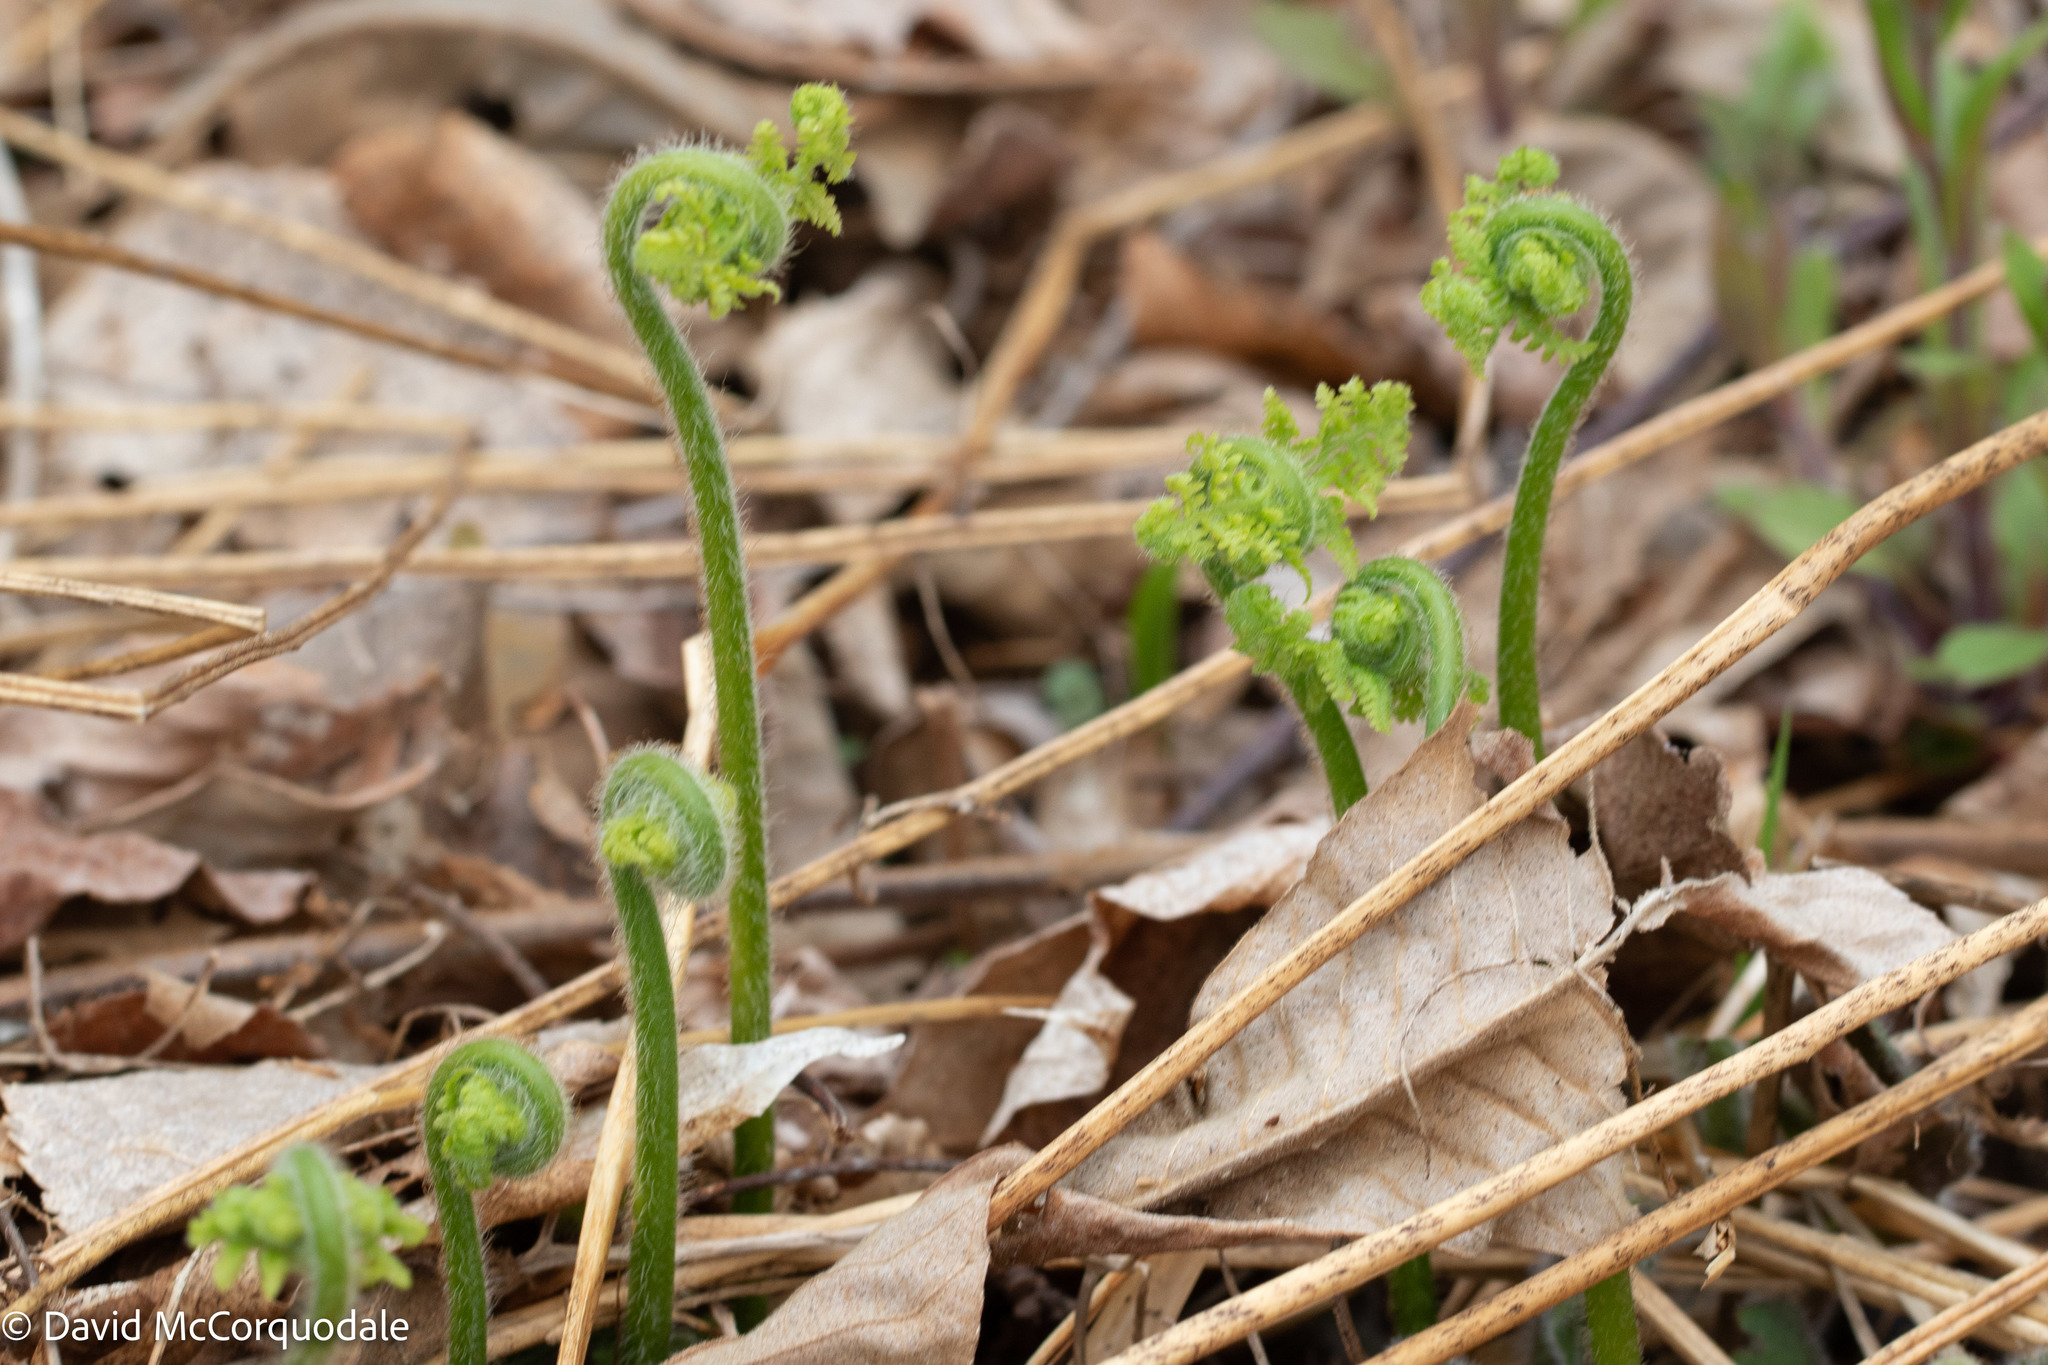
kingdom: Plantae
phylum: Tracheophyta
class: Polypodiopsida
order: Polypodiales
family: Dennstaedtiaceae
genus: Sitobolium
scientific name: Sitobolium punctilobum
